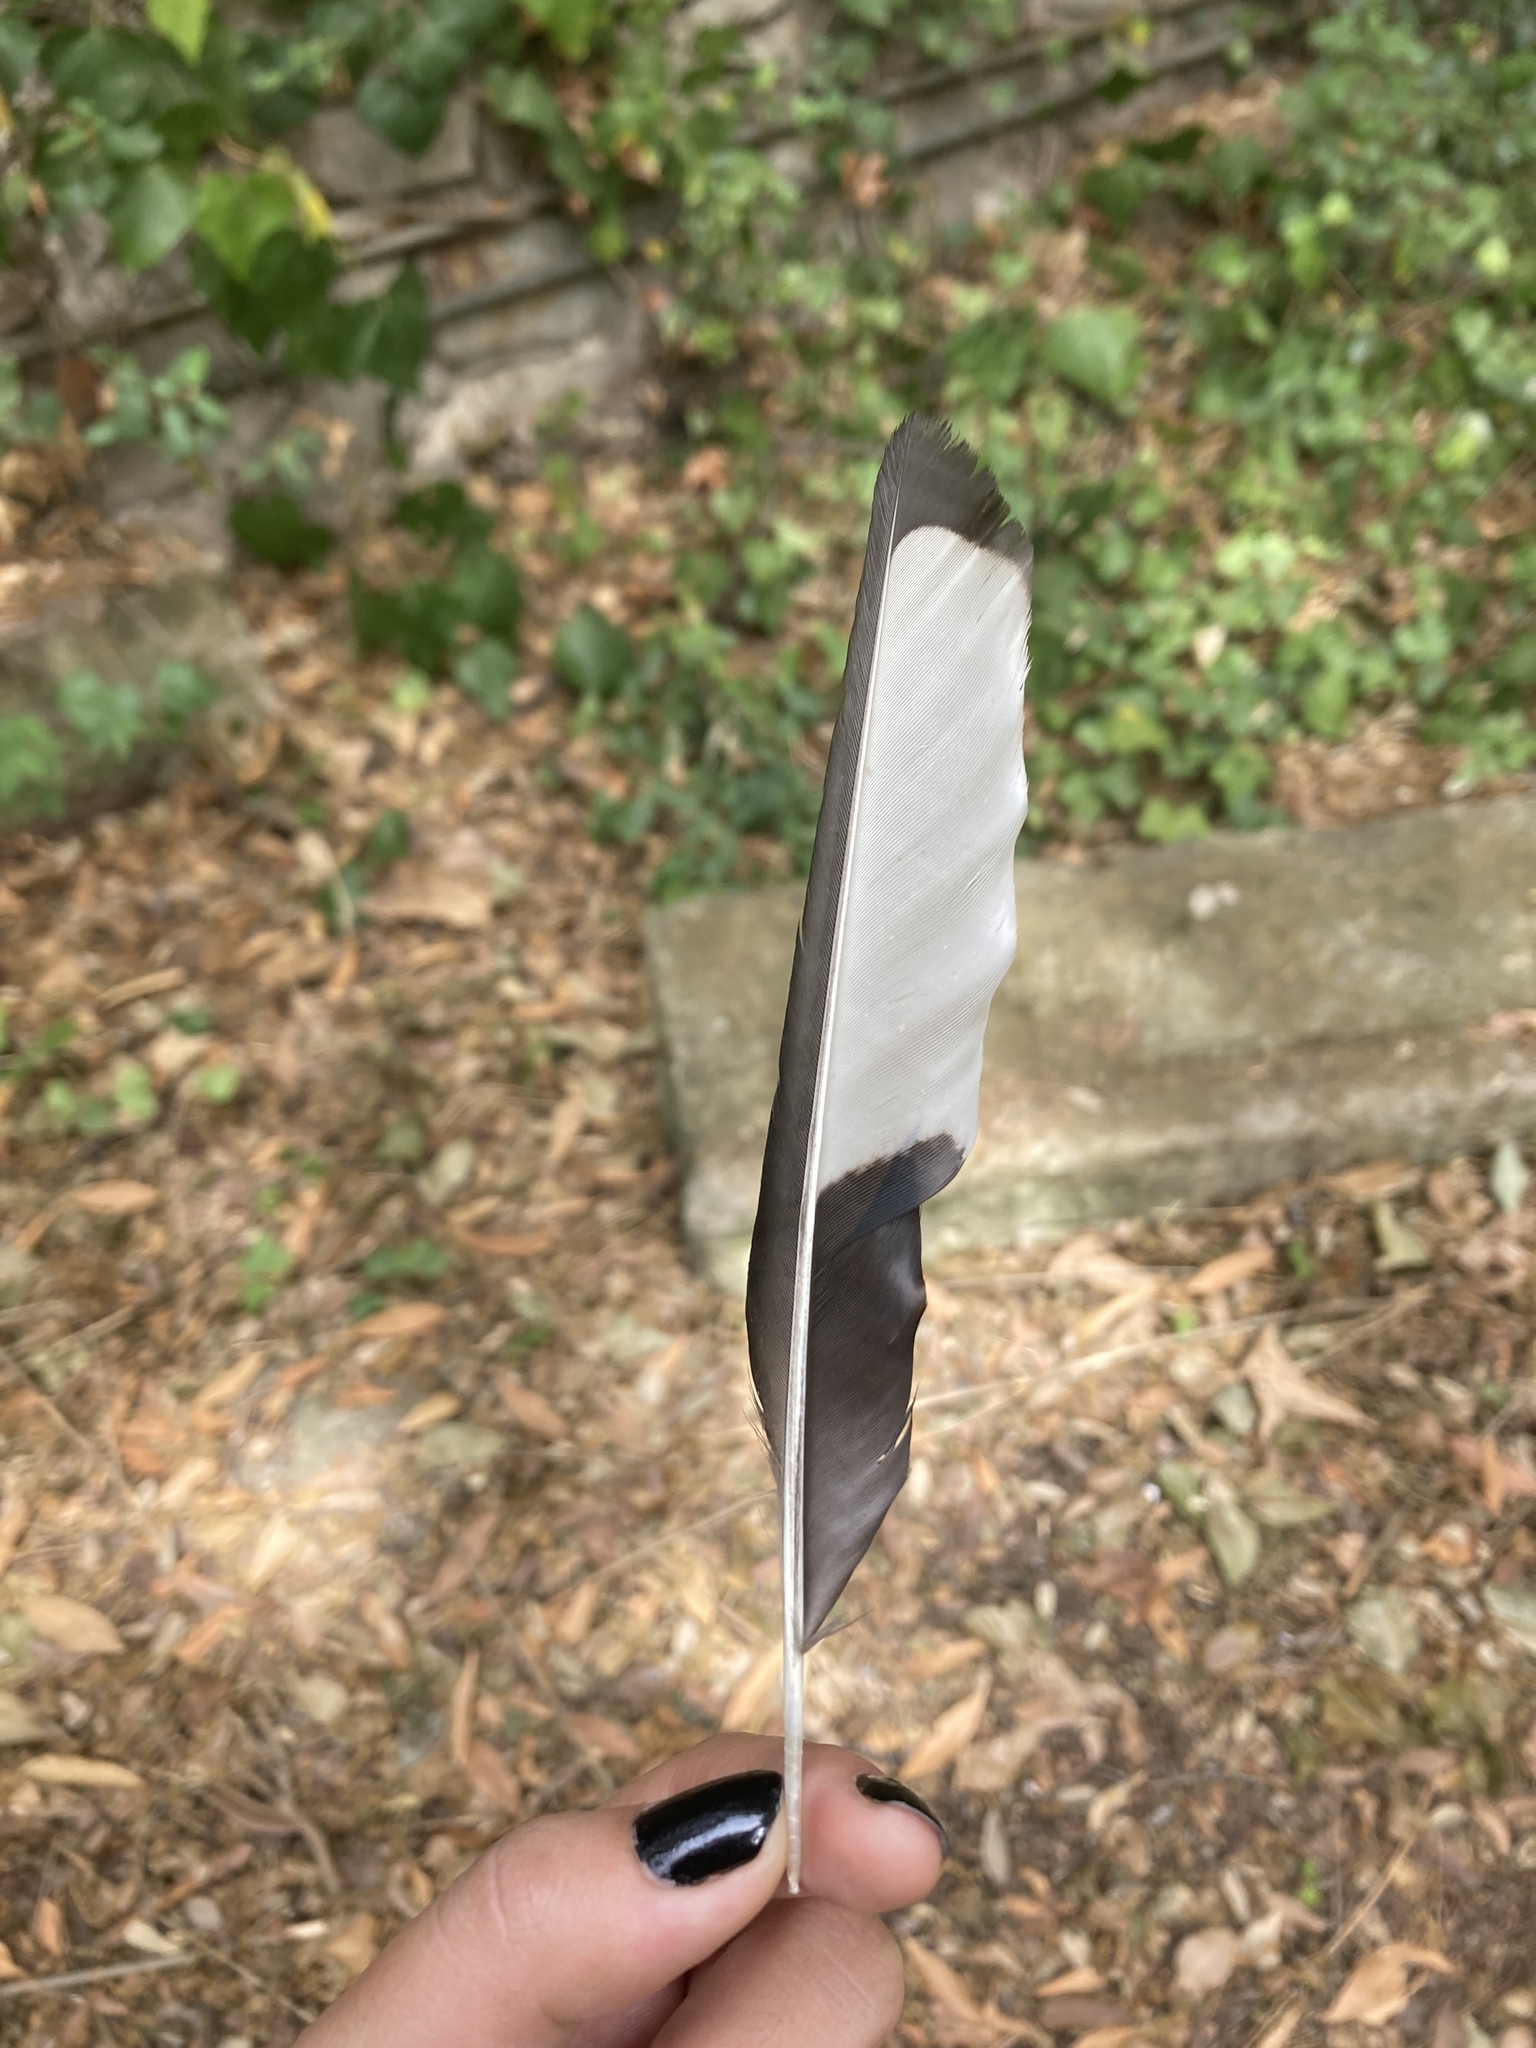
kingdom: Animalia
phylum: Chordata
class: Aves
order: Passeriformes
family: Corvidae
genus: Pica
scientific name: Pica pica
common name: Eurasian magpie
